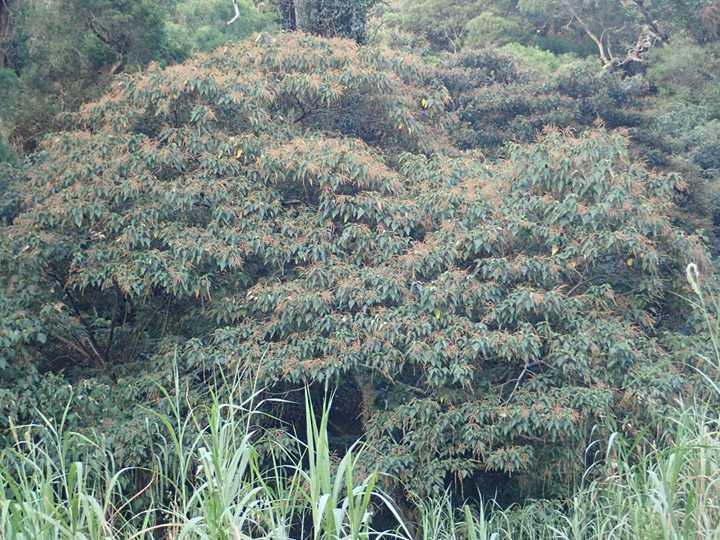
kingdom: Plantae
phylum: Tracheophyta
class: Magnoliopsida
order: Malpighiales
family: Euphorbiaceae
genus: Mallotus
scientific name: Mallotus paniculatus
